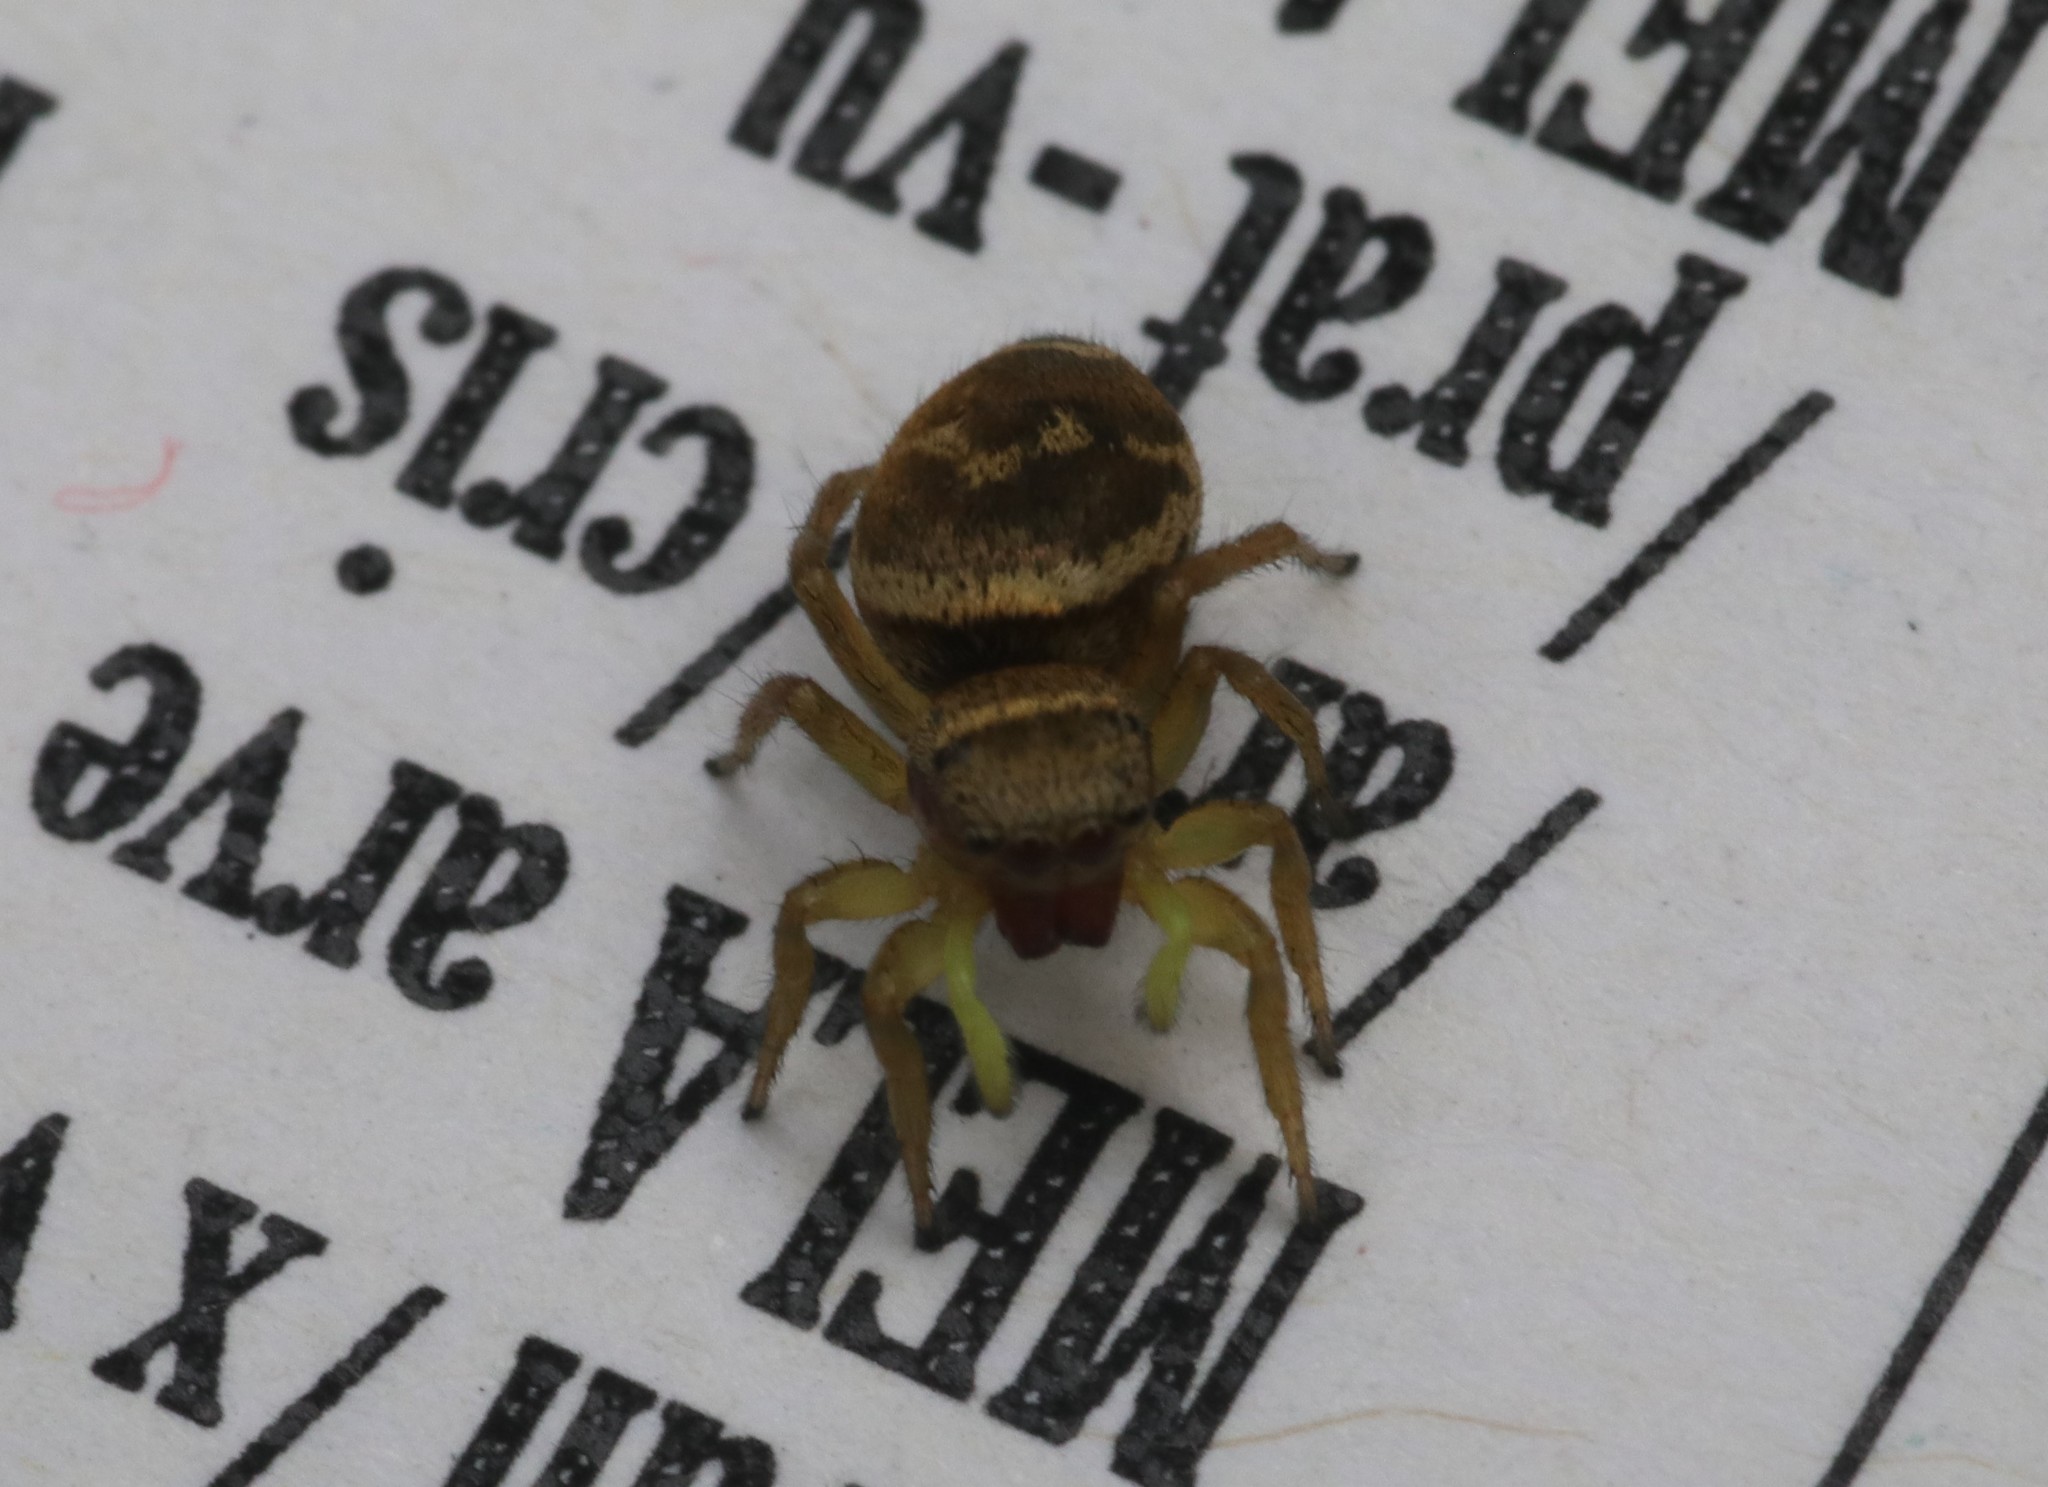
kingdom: Animalia
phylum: Arthropoda
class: Arachnida
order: Araneae
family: Salticidae
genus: Heliophanus
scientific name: Heliophanus tribulosus
